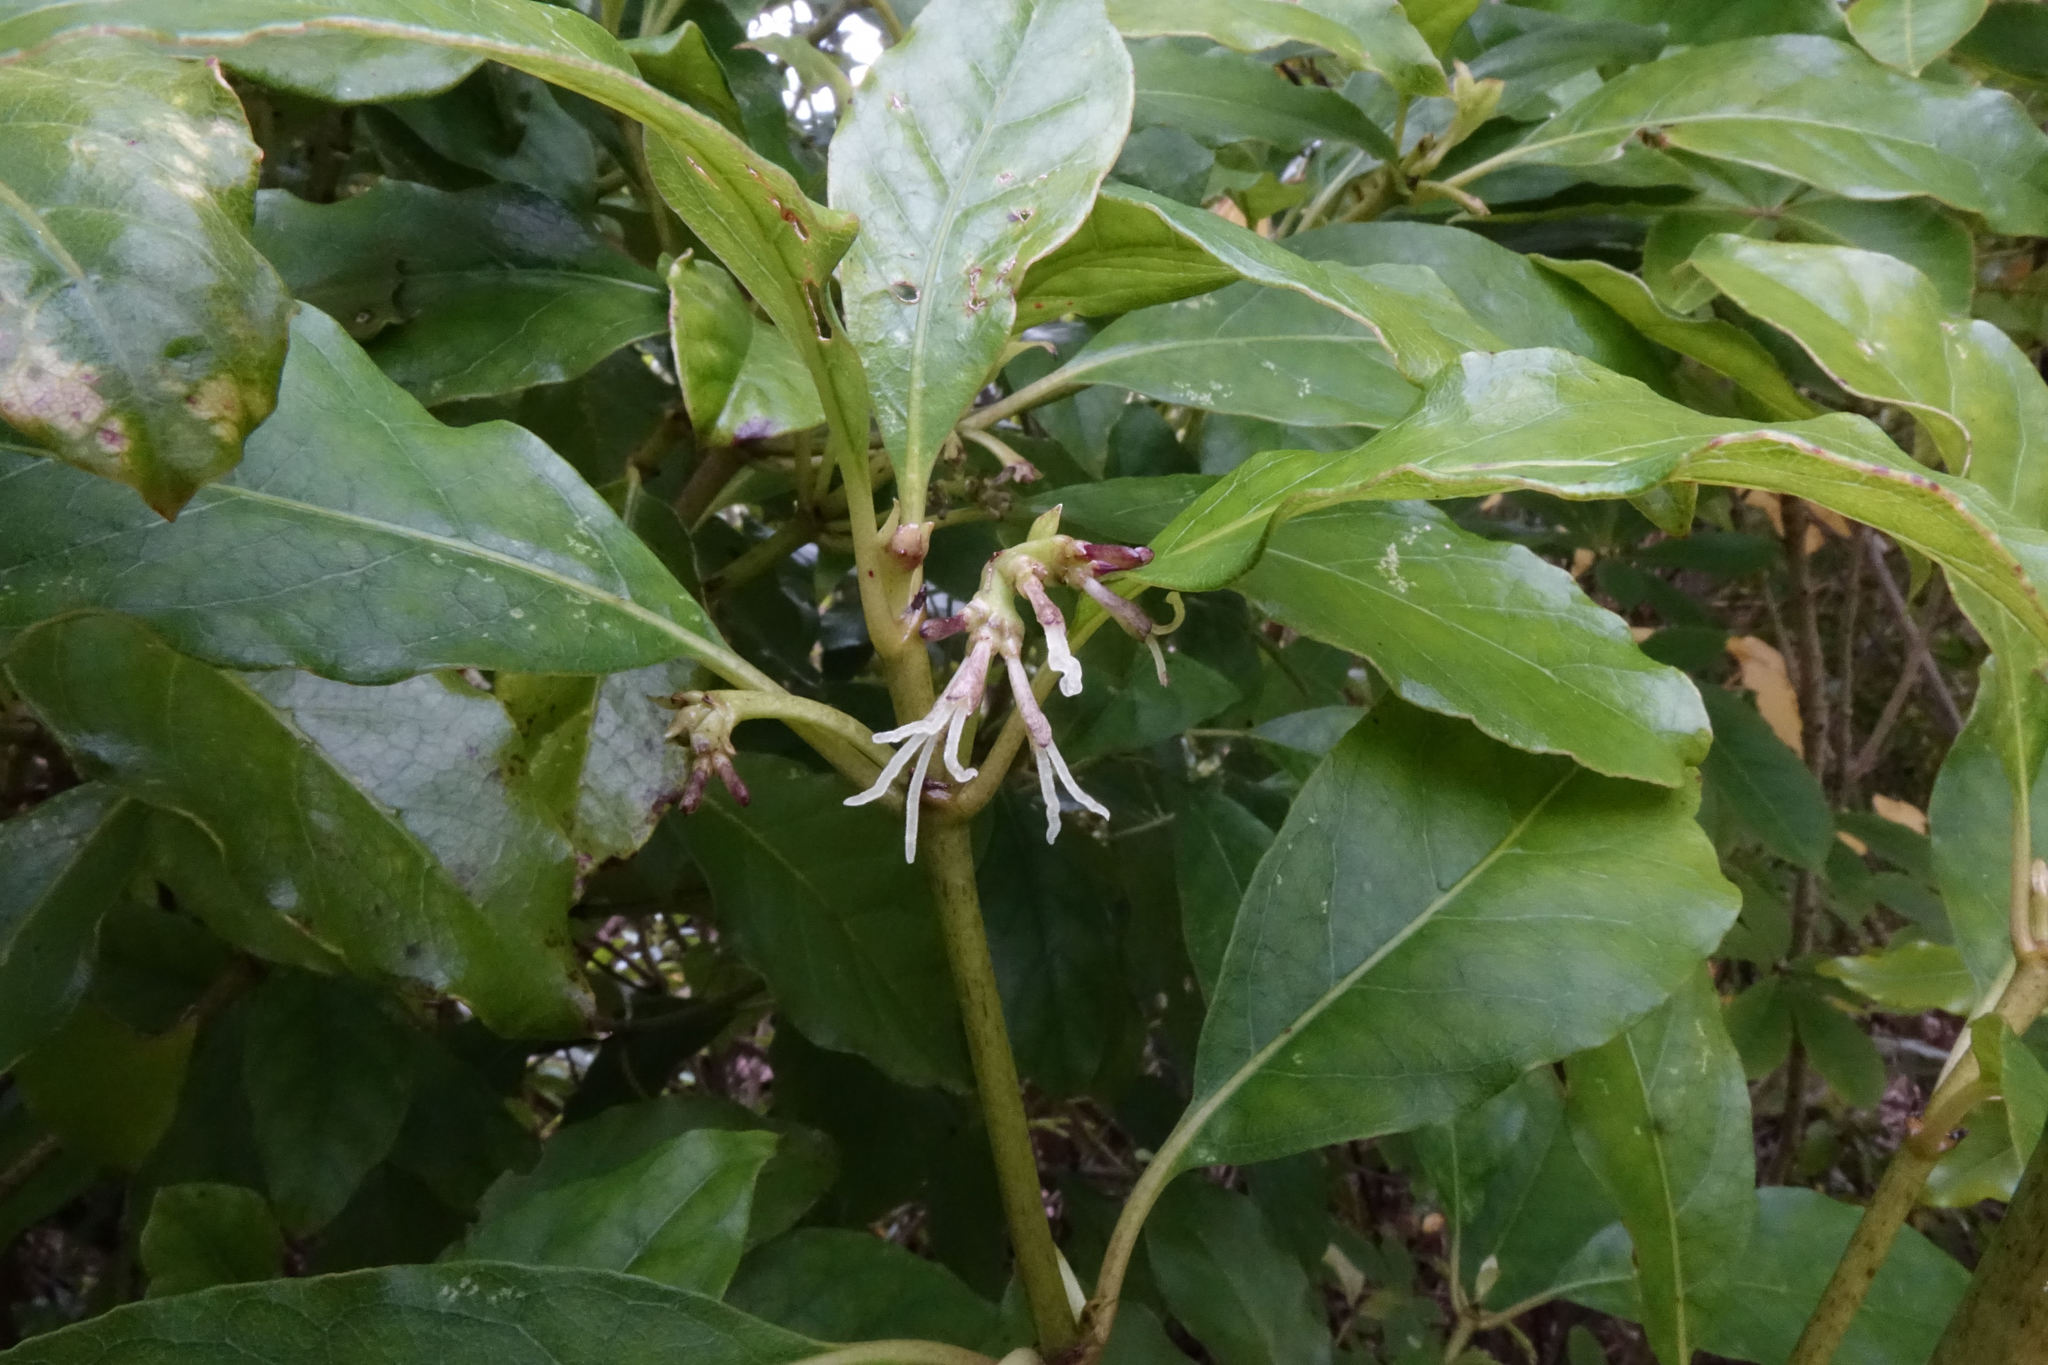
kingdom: Plantae
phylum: Tracheophyta
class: Magnoliopsida
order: Gentianales
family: Rubiaceae
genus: Coprosma
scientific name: Coprosma autumnalis
